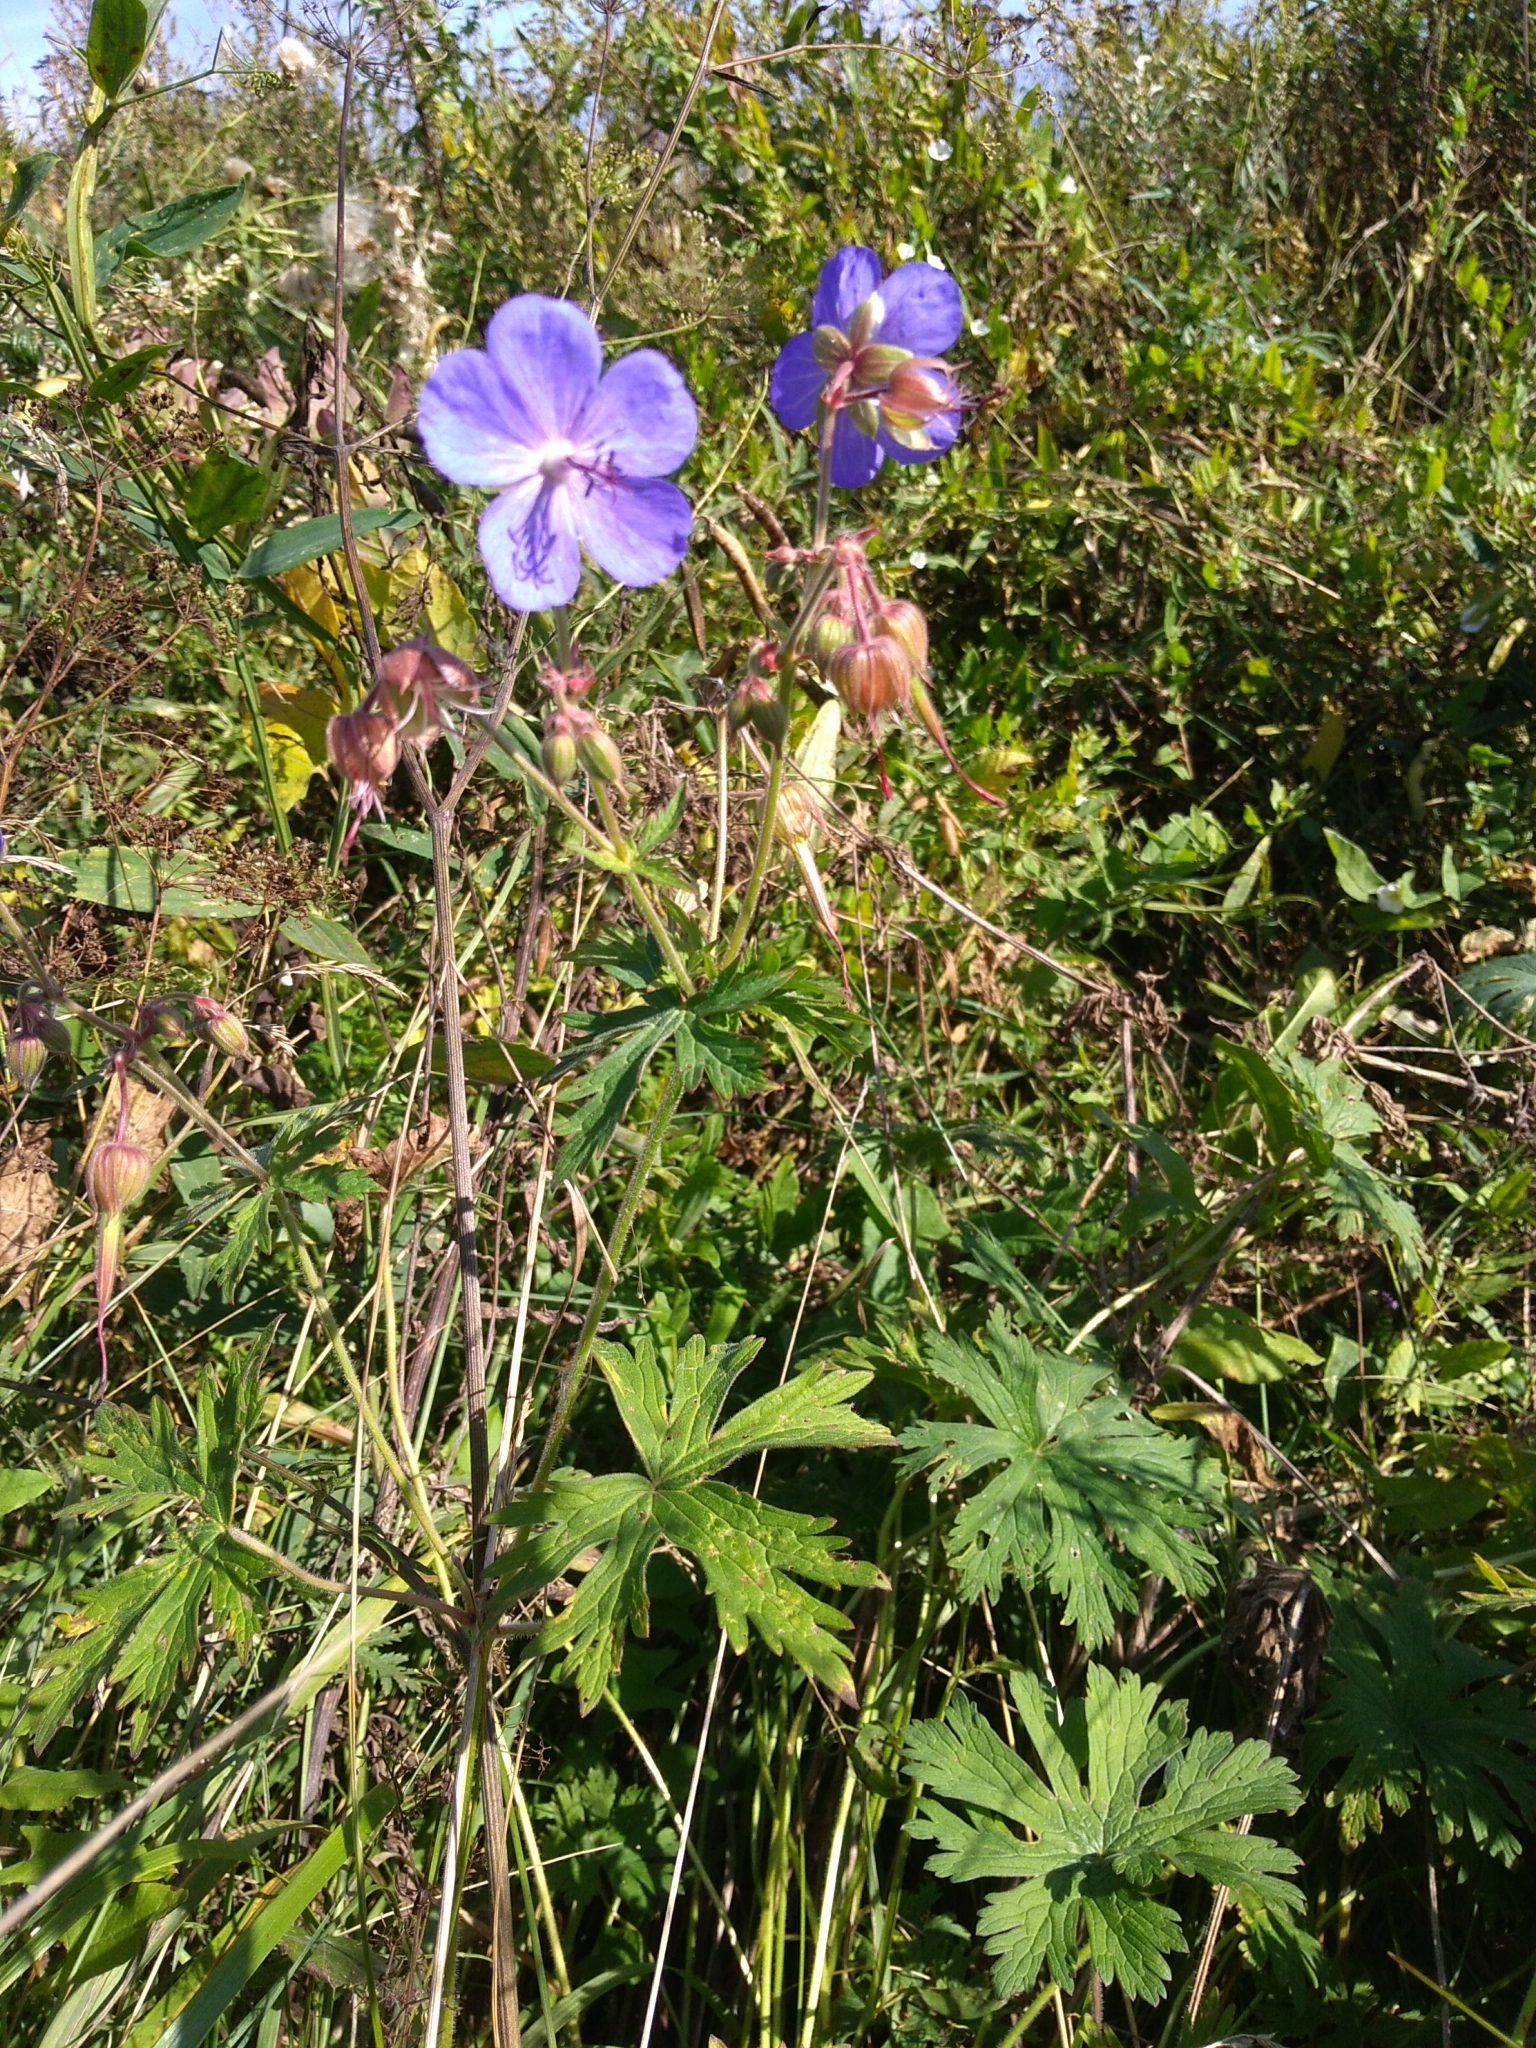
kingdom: Plantae
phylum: Tracheophyta
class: Magnoliopsida
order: Geraniales
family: Geraniaceae
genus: Geranium
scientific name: Geranium pratense
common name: Meadow crane's-bill
